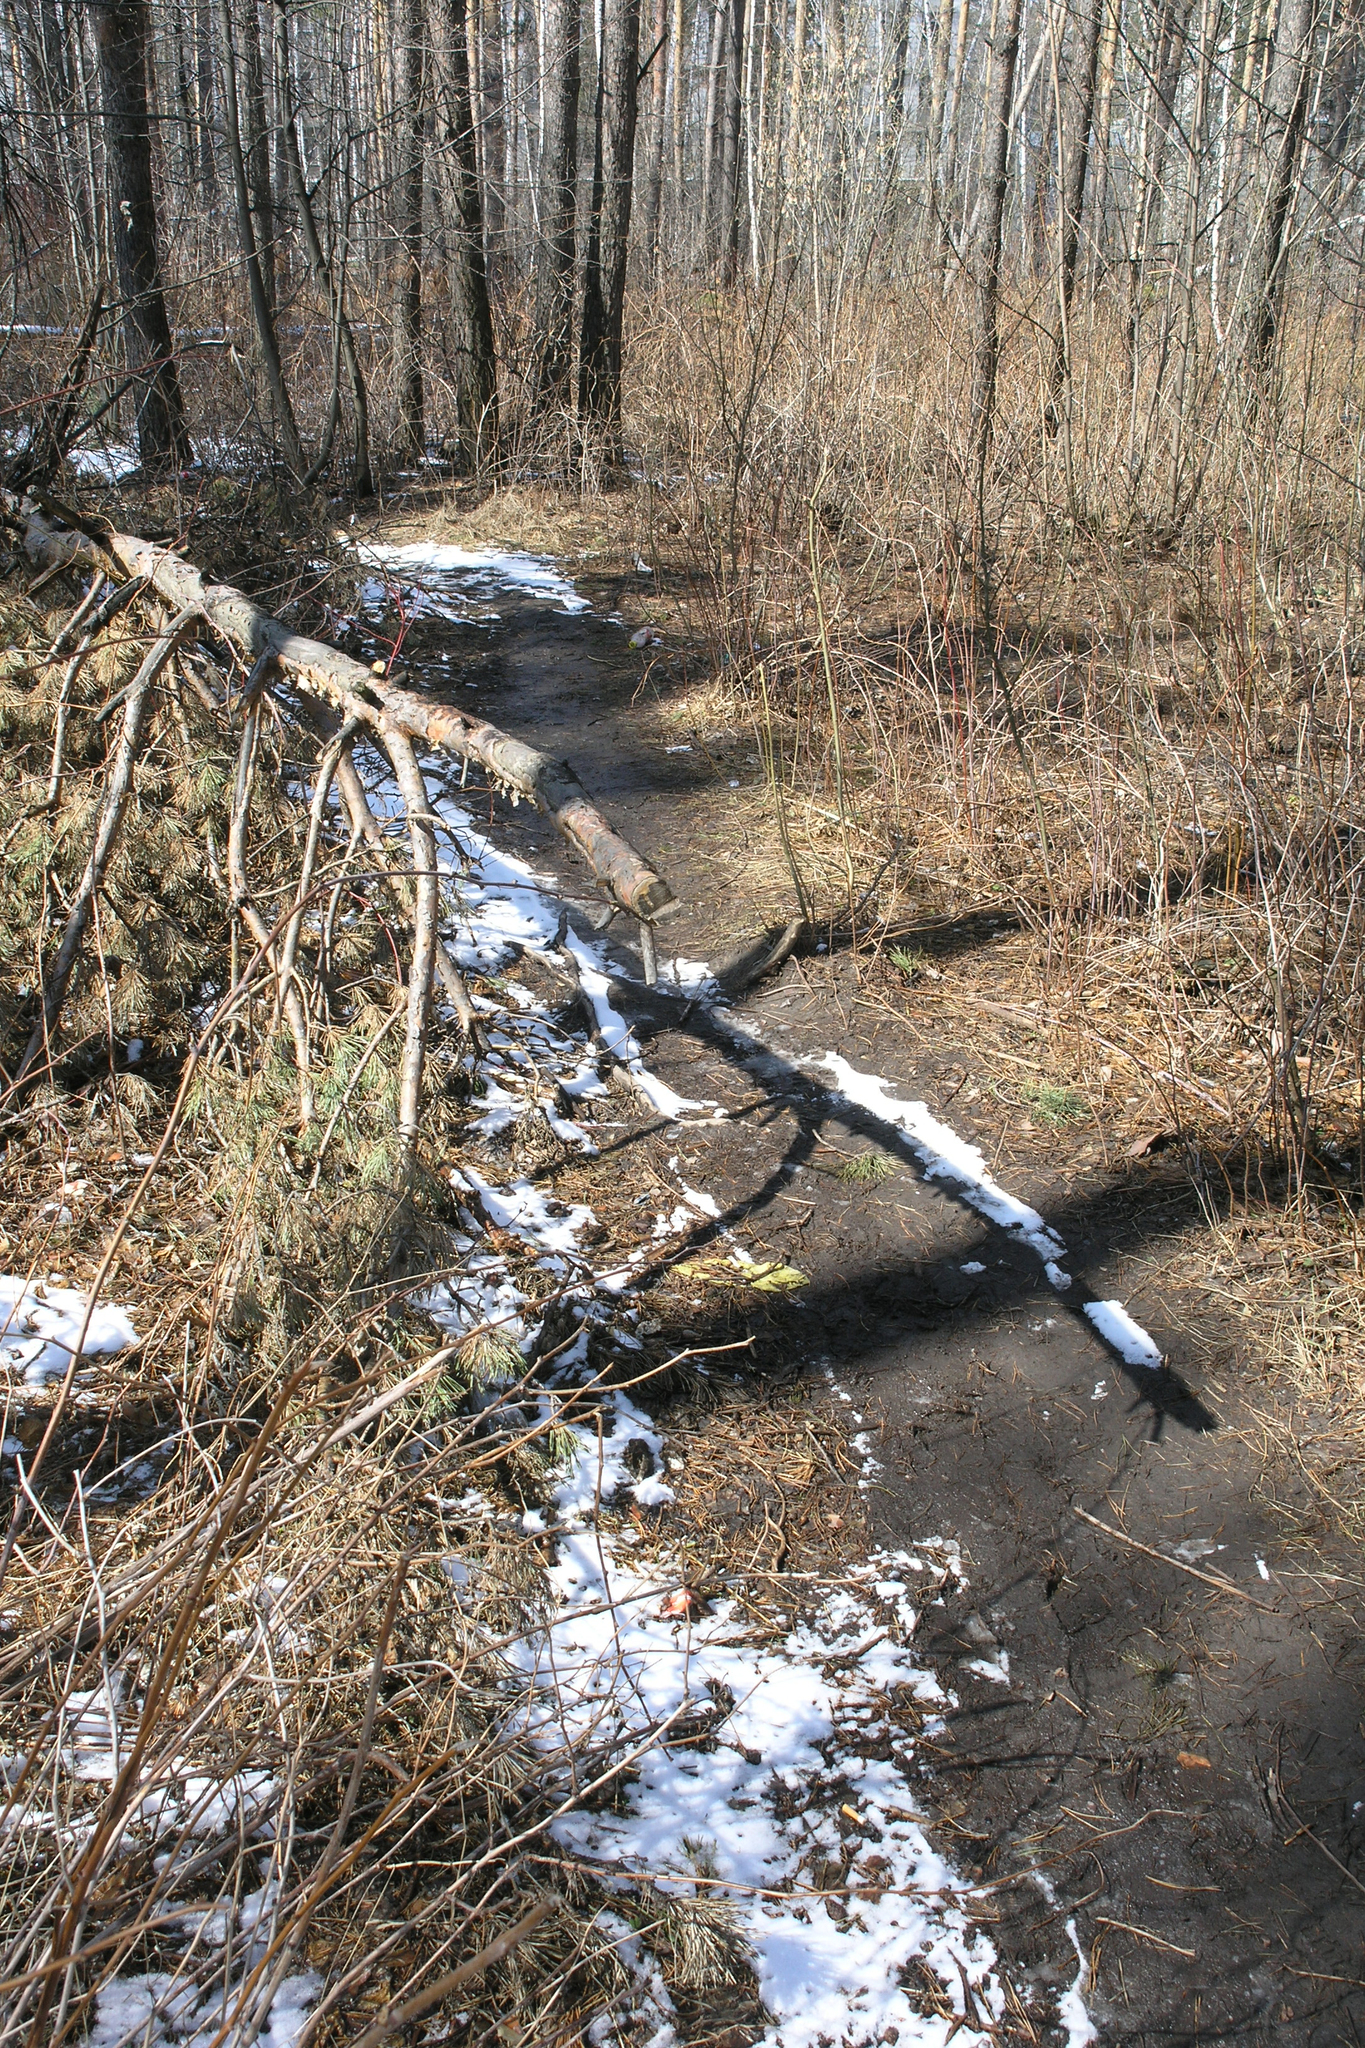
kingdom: Plantae
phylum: Tracheophyta
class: Pinopsida
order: Pinales
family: Pinaceae
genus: Pinus
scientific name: Pinus sylvestris
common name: Scots pine
